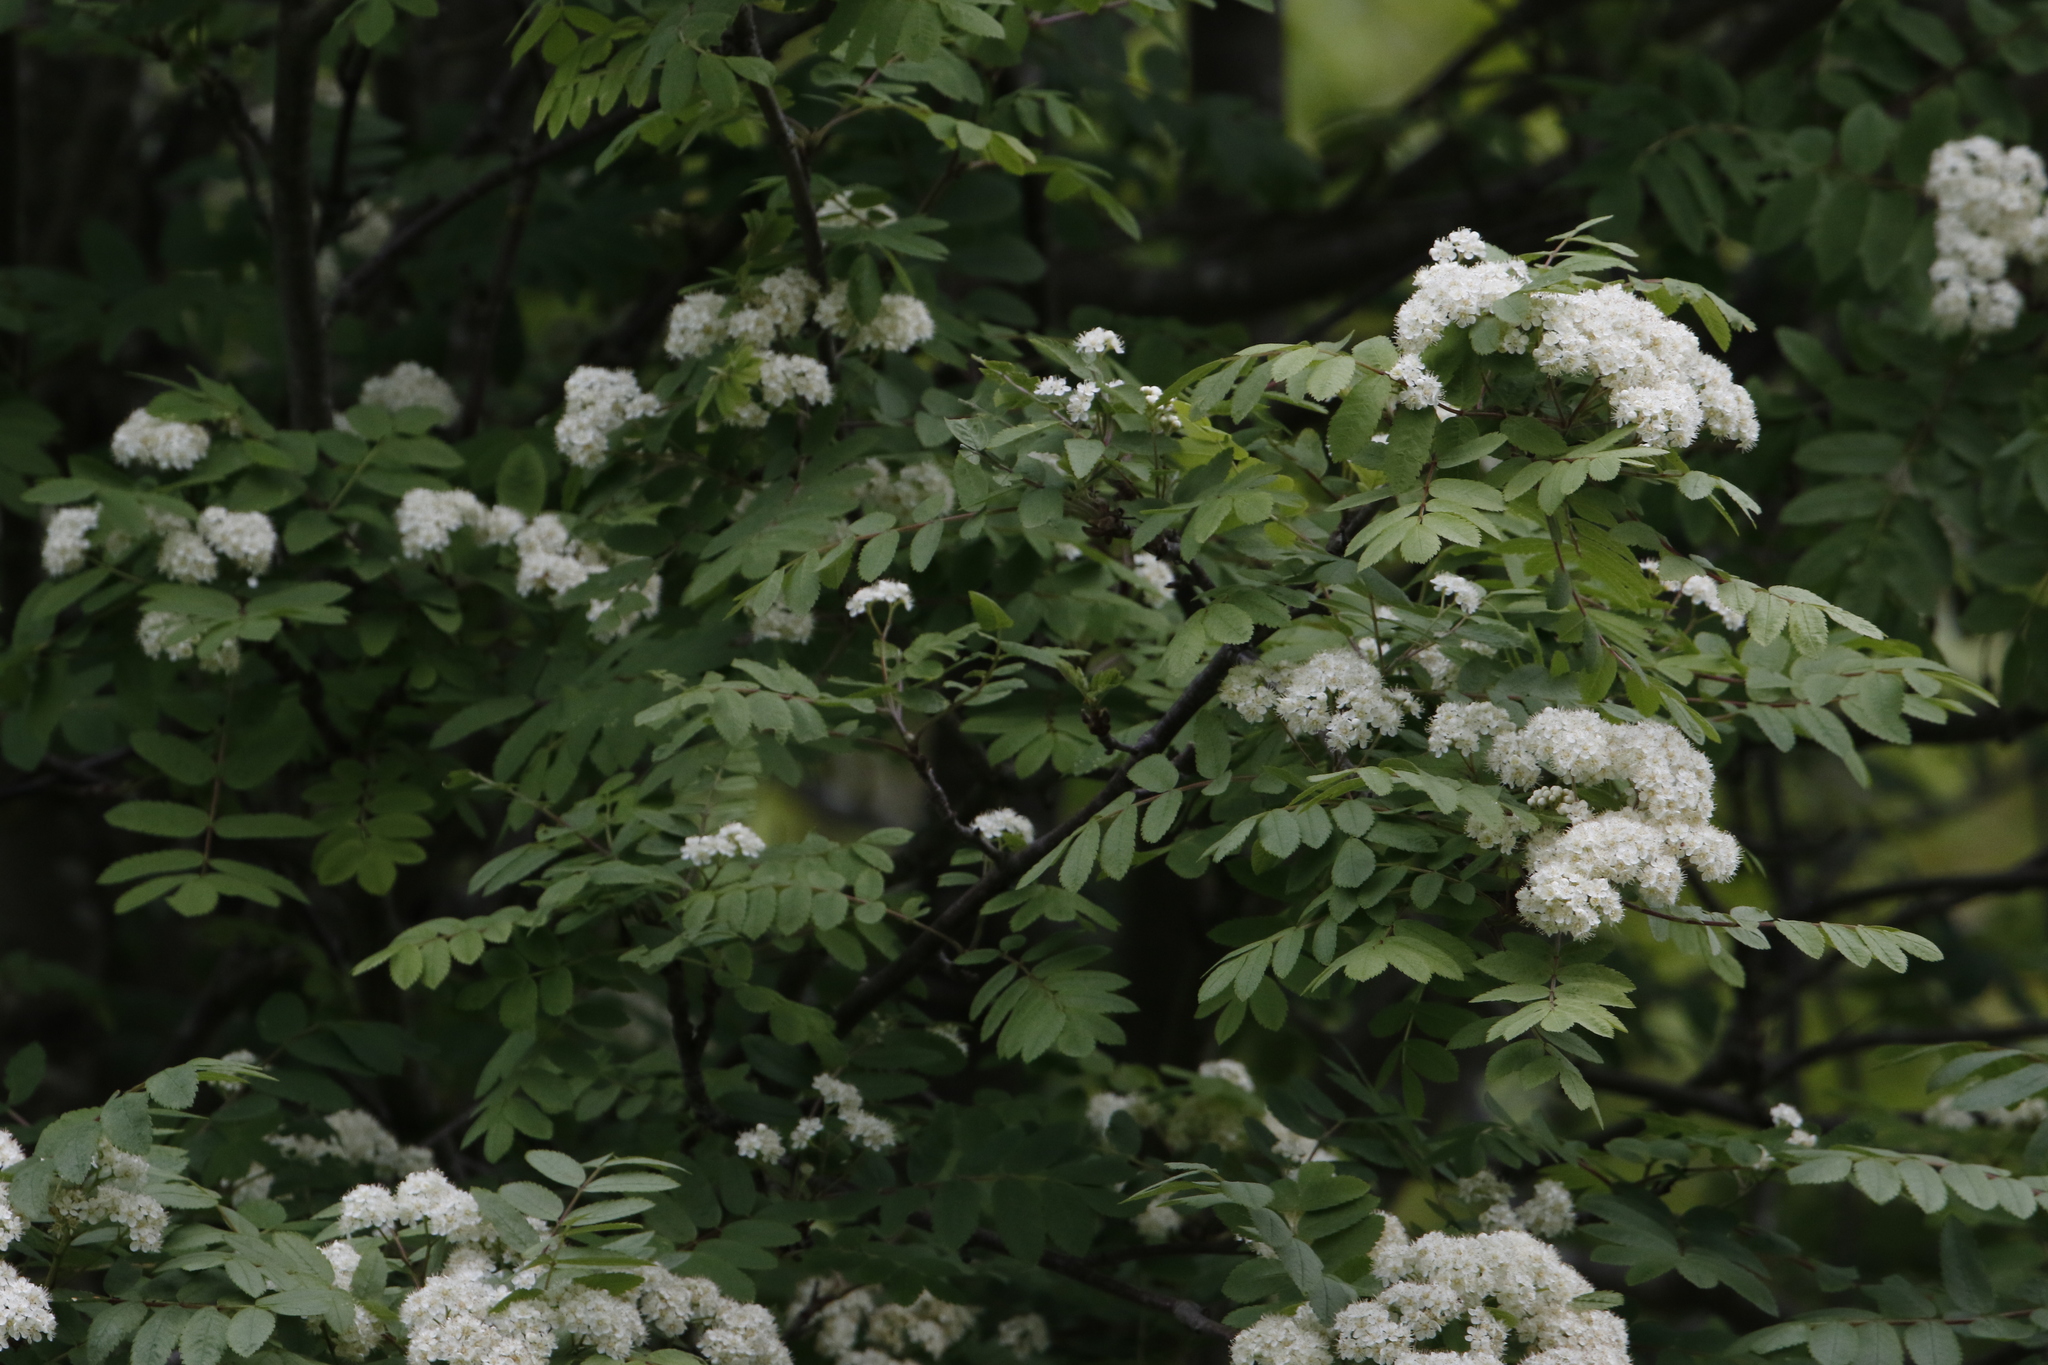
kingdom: Plantae
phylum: Tracheophyta
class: Magnoliopsida
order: Rosales
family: Rosaceae
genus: Sorbus
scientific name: Sorbus aucuparia
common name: Rowan
